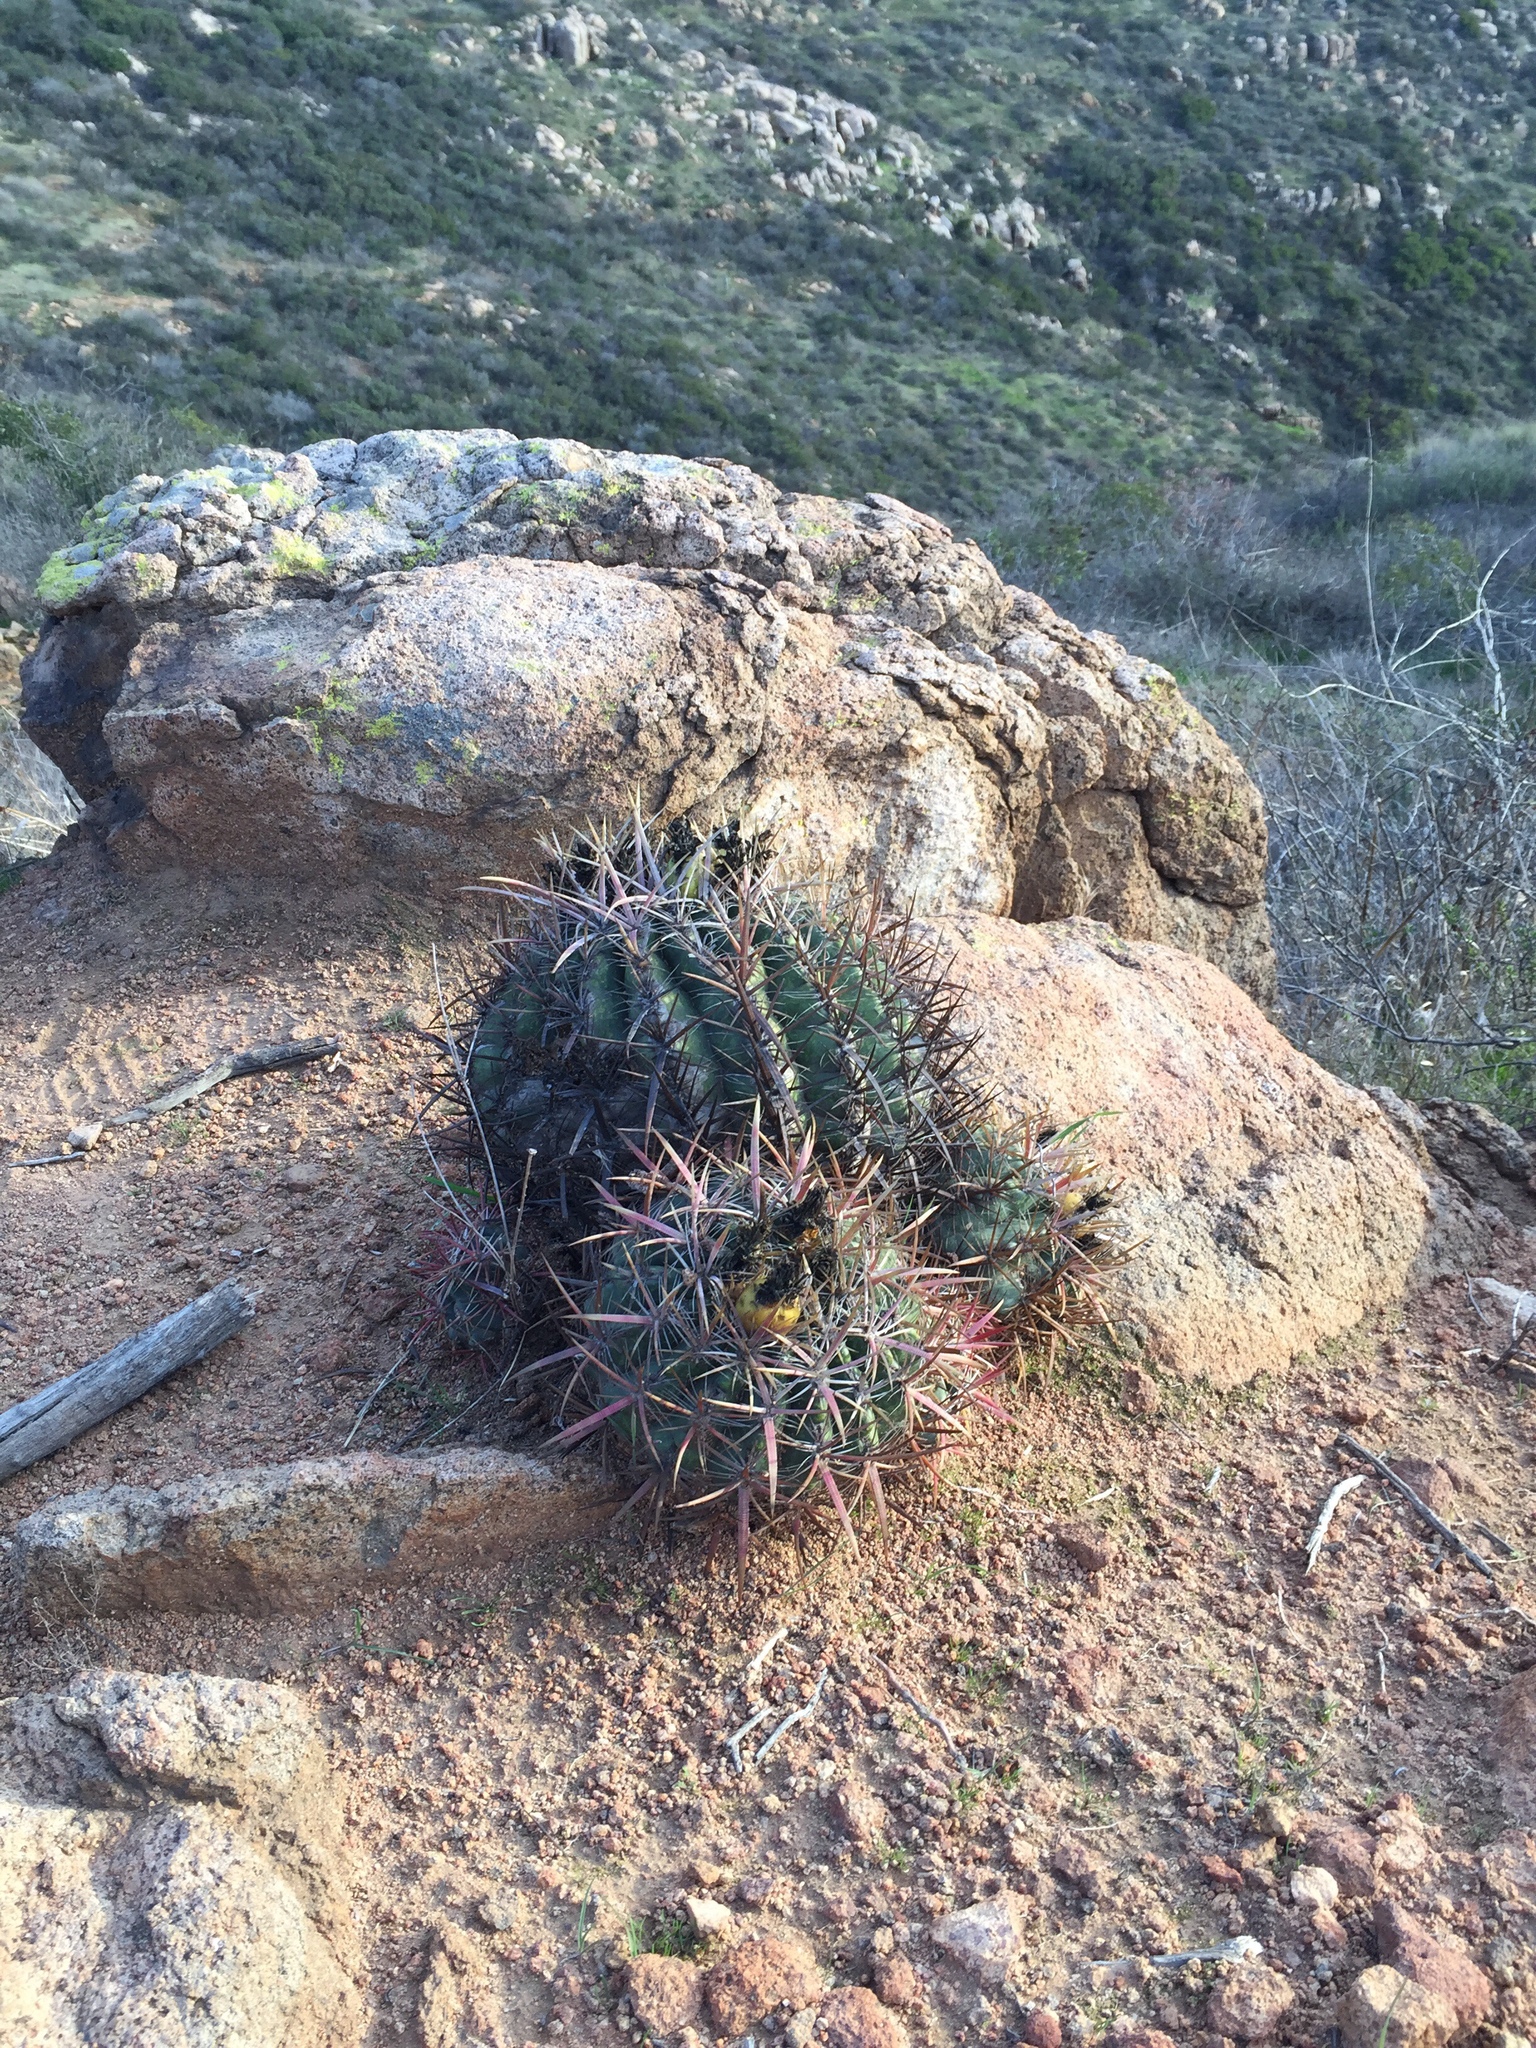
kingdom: Plantae
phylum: Tracheophyta
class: Magnoliopsida
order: Caryophyllales
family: Cactaceae
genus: Ferocactus
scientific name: Ferocactus viridescens
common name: San diego barrel cactus
